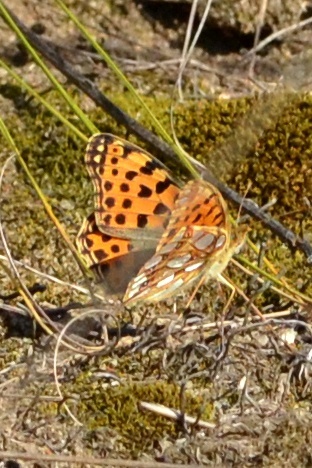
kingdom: Animalia
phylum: Arthropoda
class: Insecta
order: Lepidoptera
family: Nymphalidae
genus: Issoria
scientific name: Issoria lathonia
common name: Queen of spain fritillary
